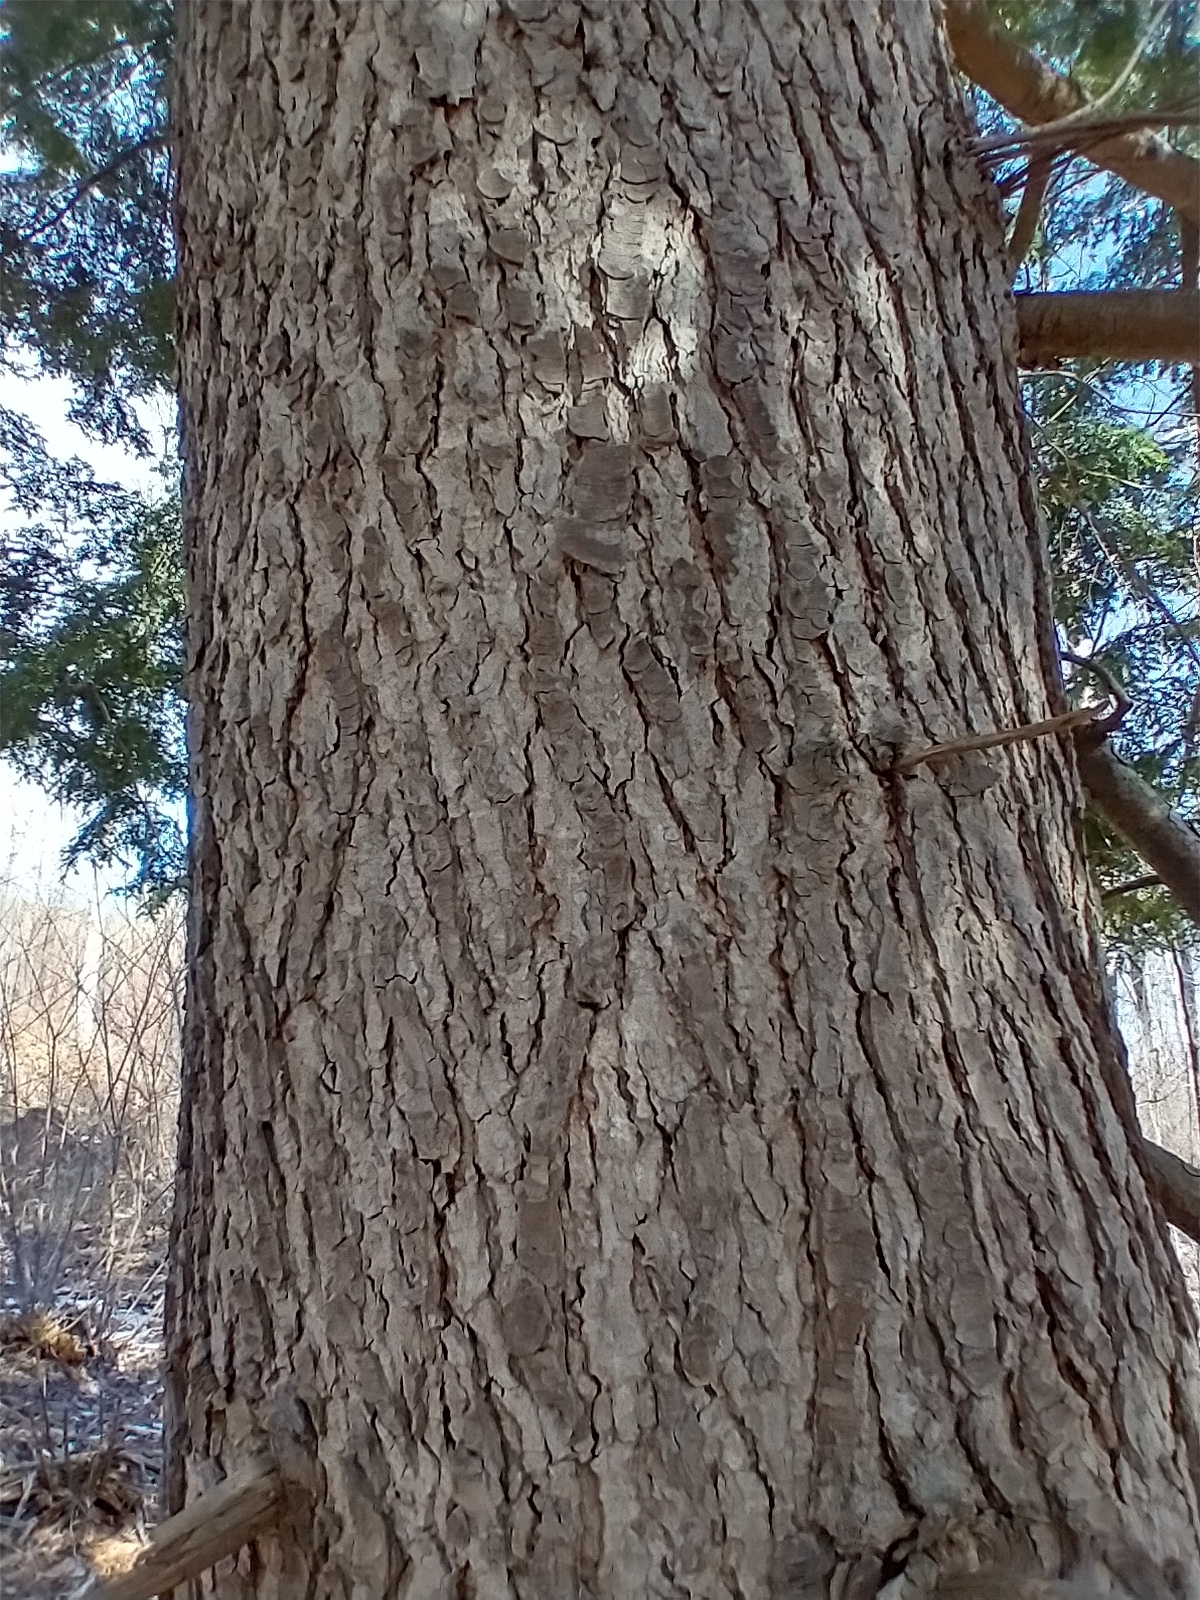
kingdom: Plantae
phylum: Tracheophyta
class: Pinopsida
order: Pinales
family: Pinaceae
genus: Tsuga
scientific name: Tsuga canadensis
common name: Eastern hemlock
